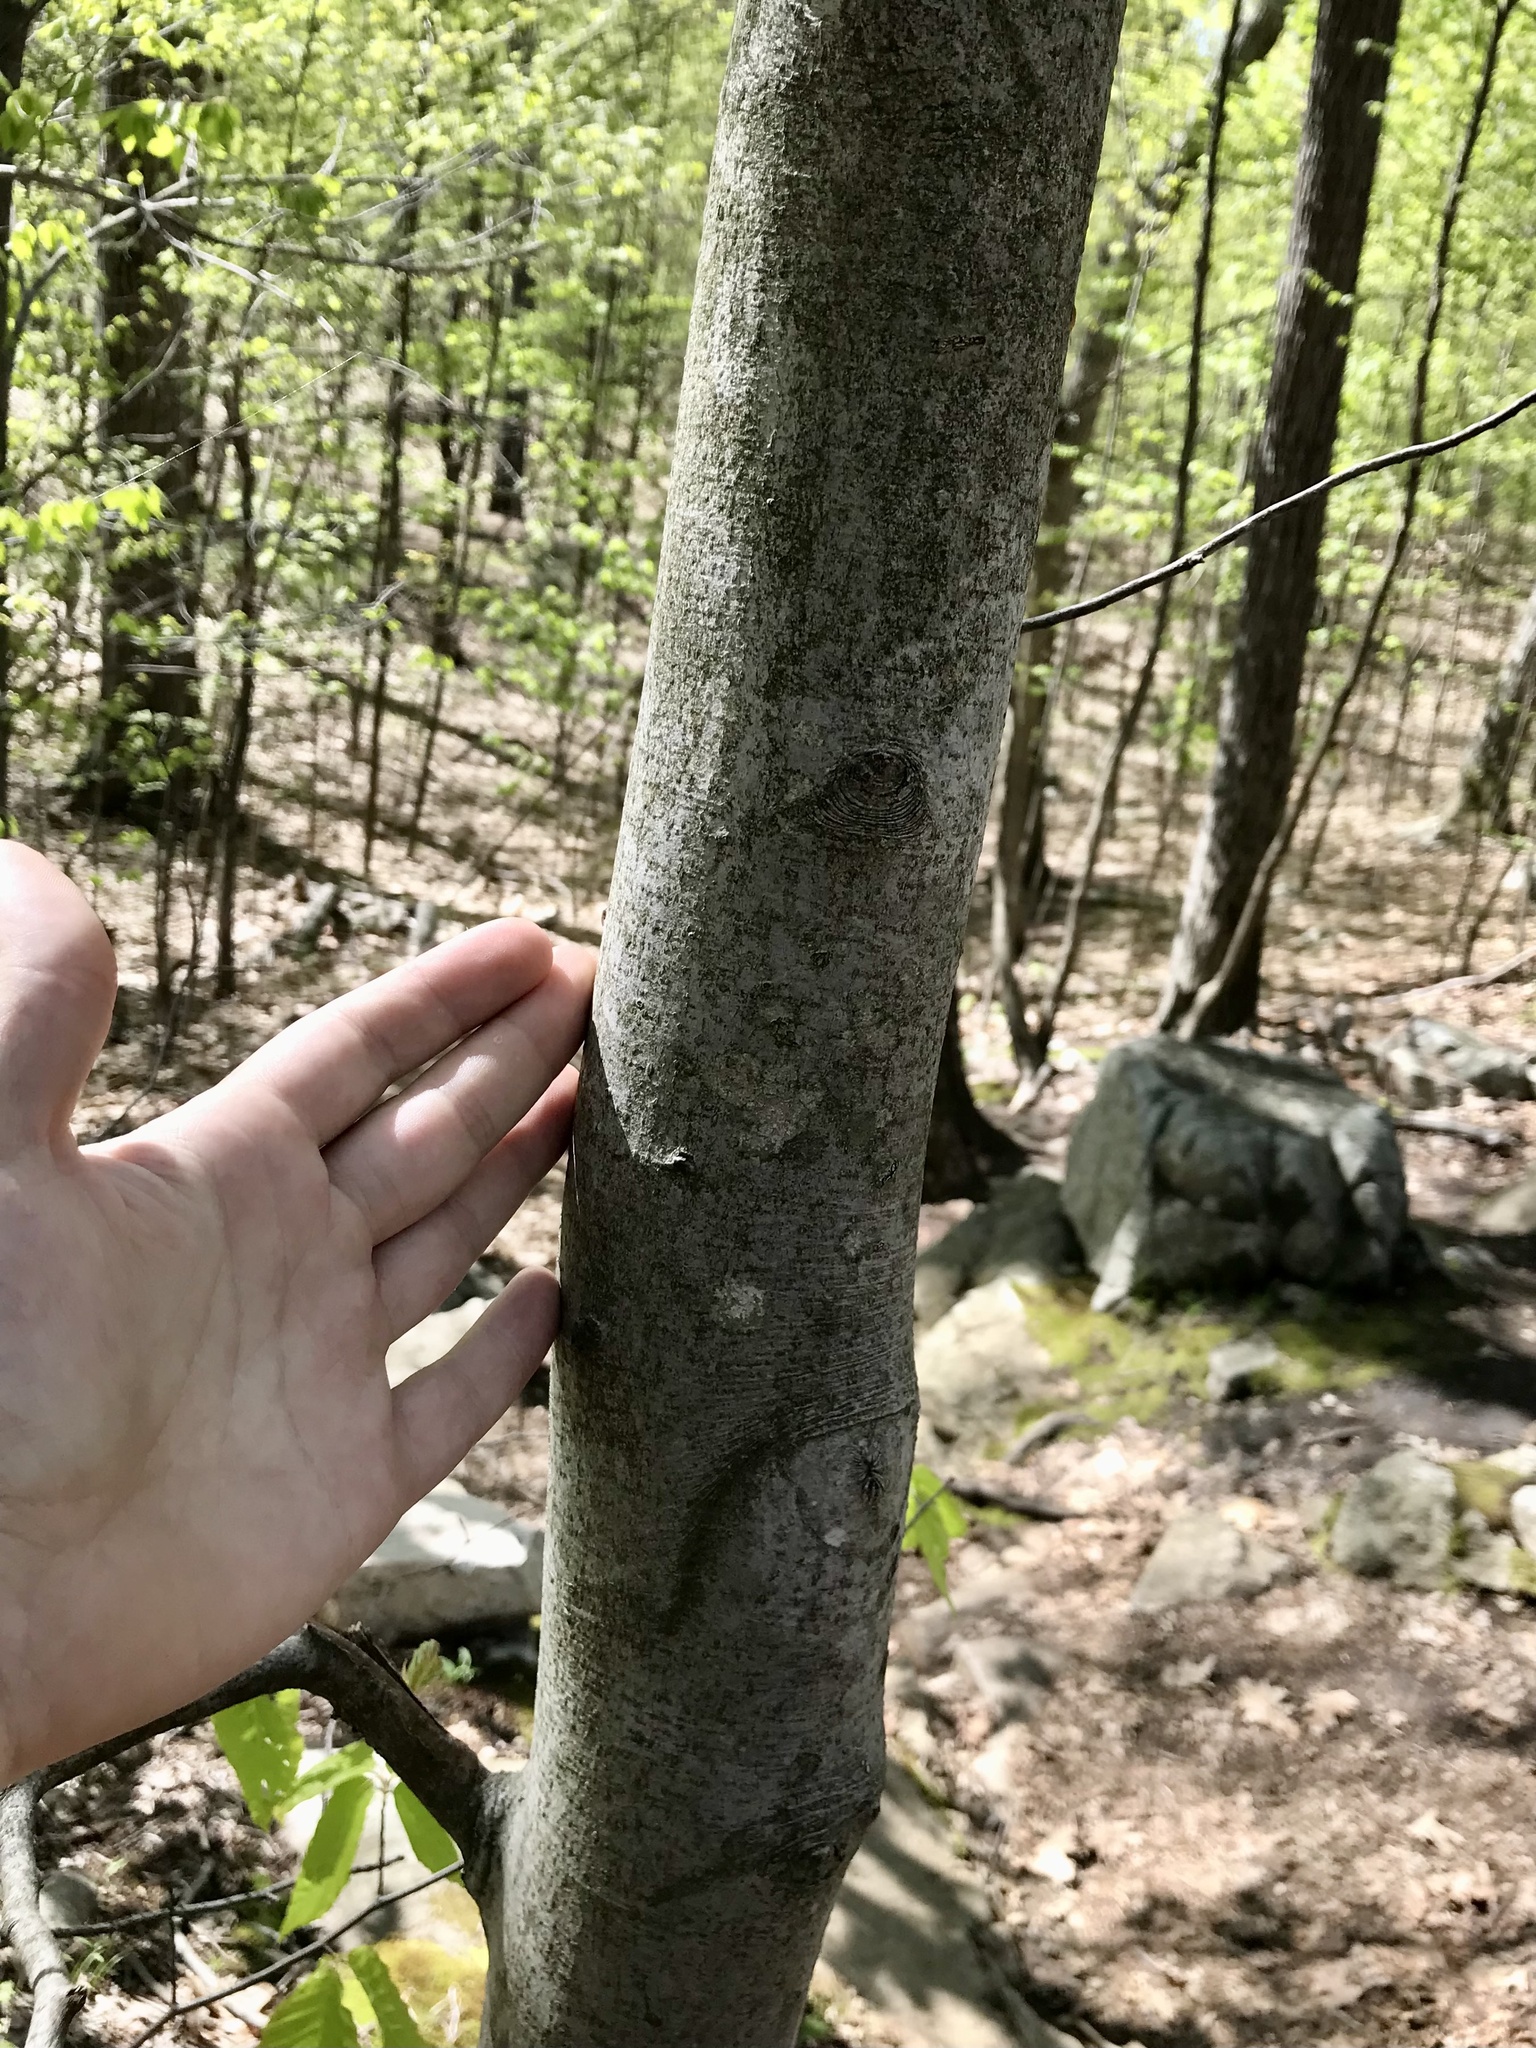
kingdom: Plantae
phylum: Tracheophyta
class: Magnoliopsida
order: Fagales
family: Fagaceae
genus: Fagus
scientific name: Fagus grandifolia
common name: American beech
